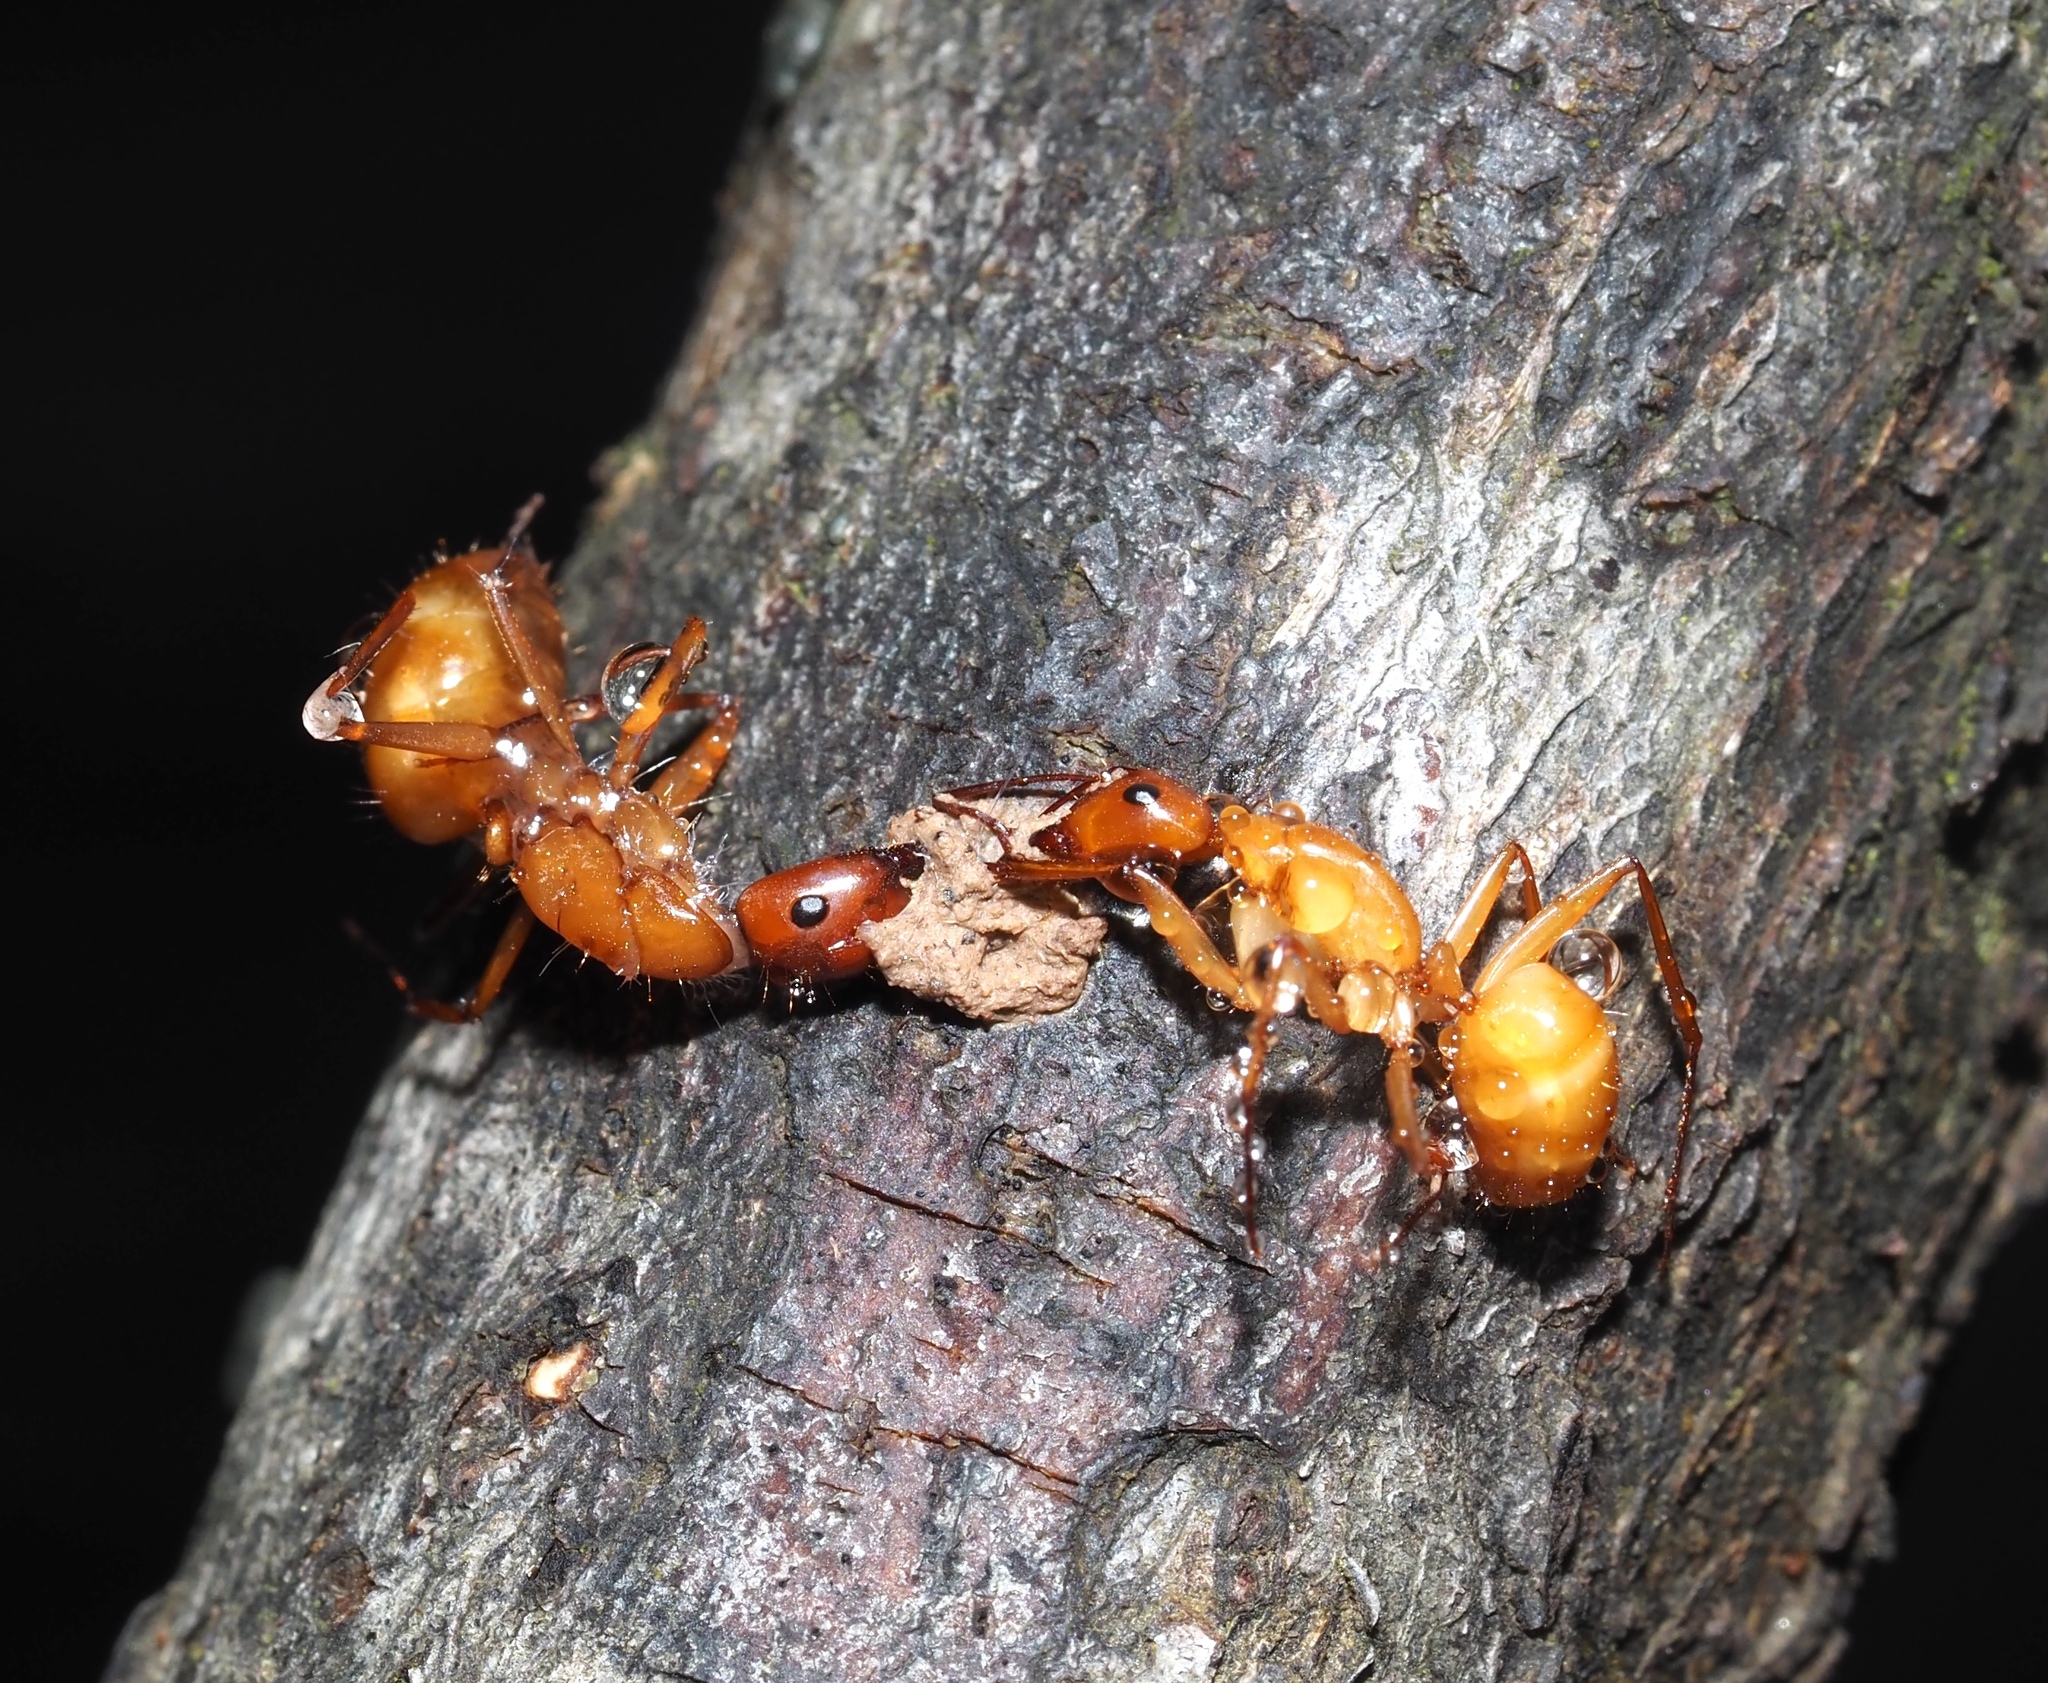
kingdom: Animalia
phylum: Arthropoda
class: Insecta
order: Hymenoptera
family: Formicidae
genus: Camponotus
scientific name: Camponotus castaneus
